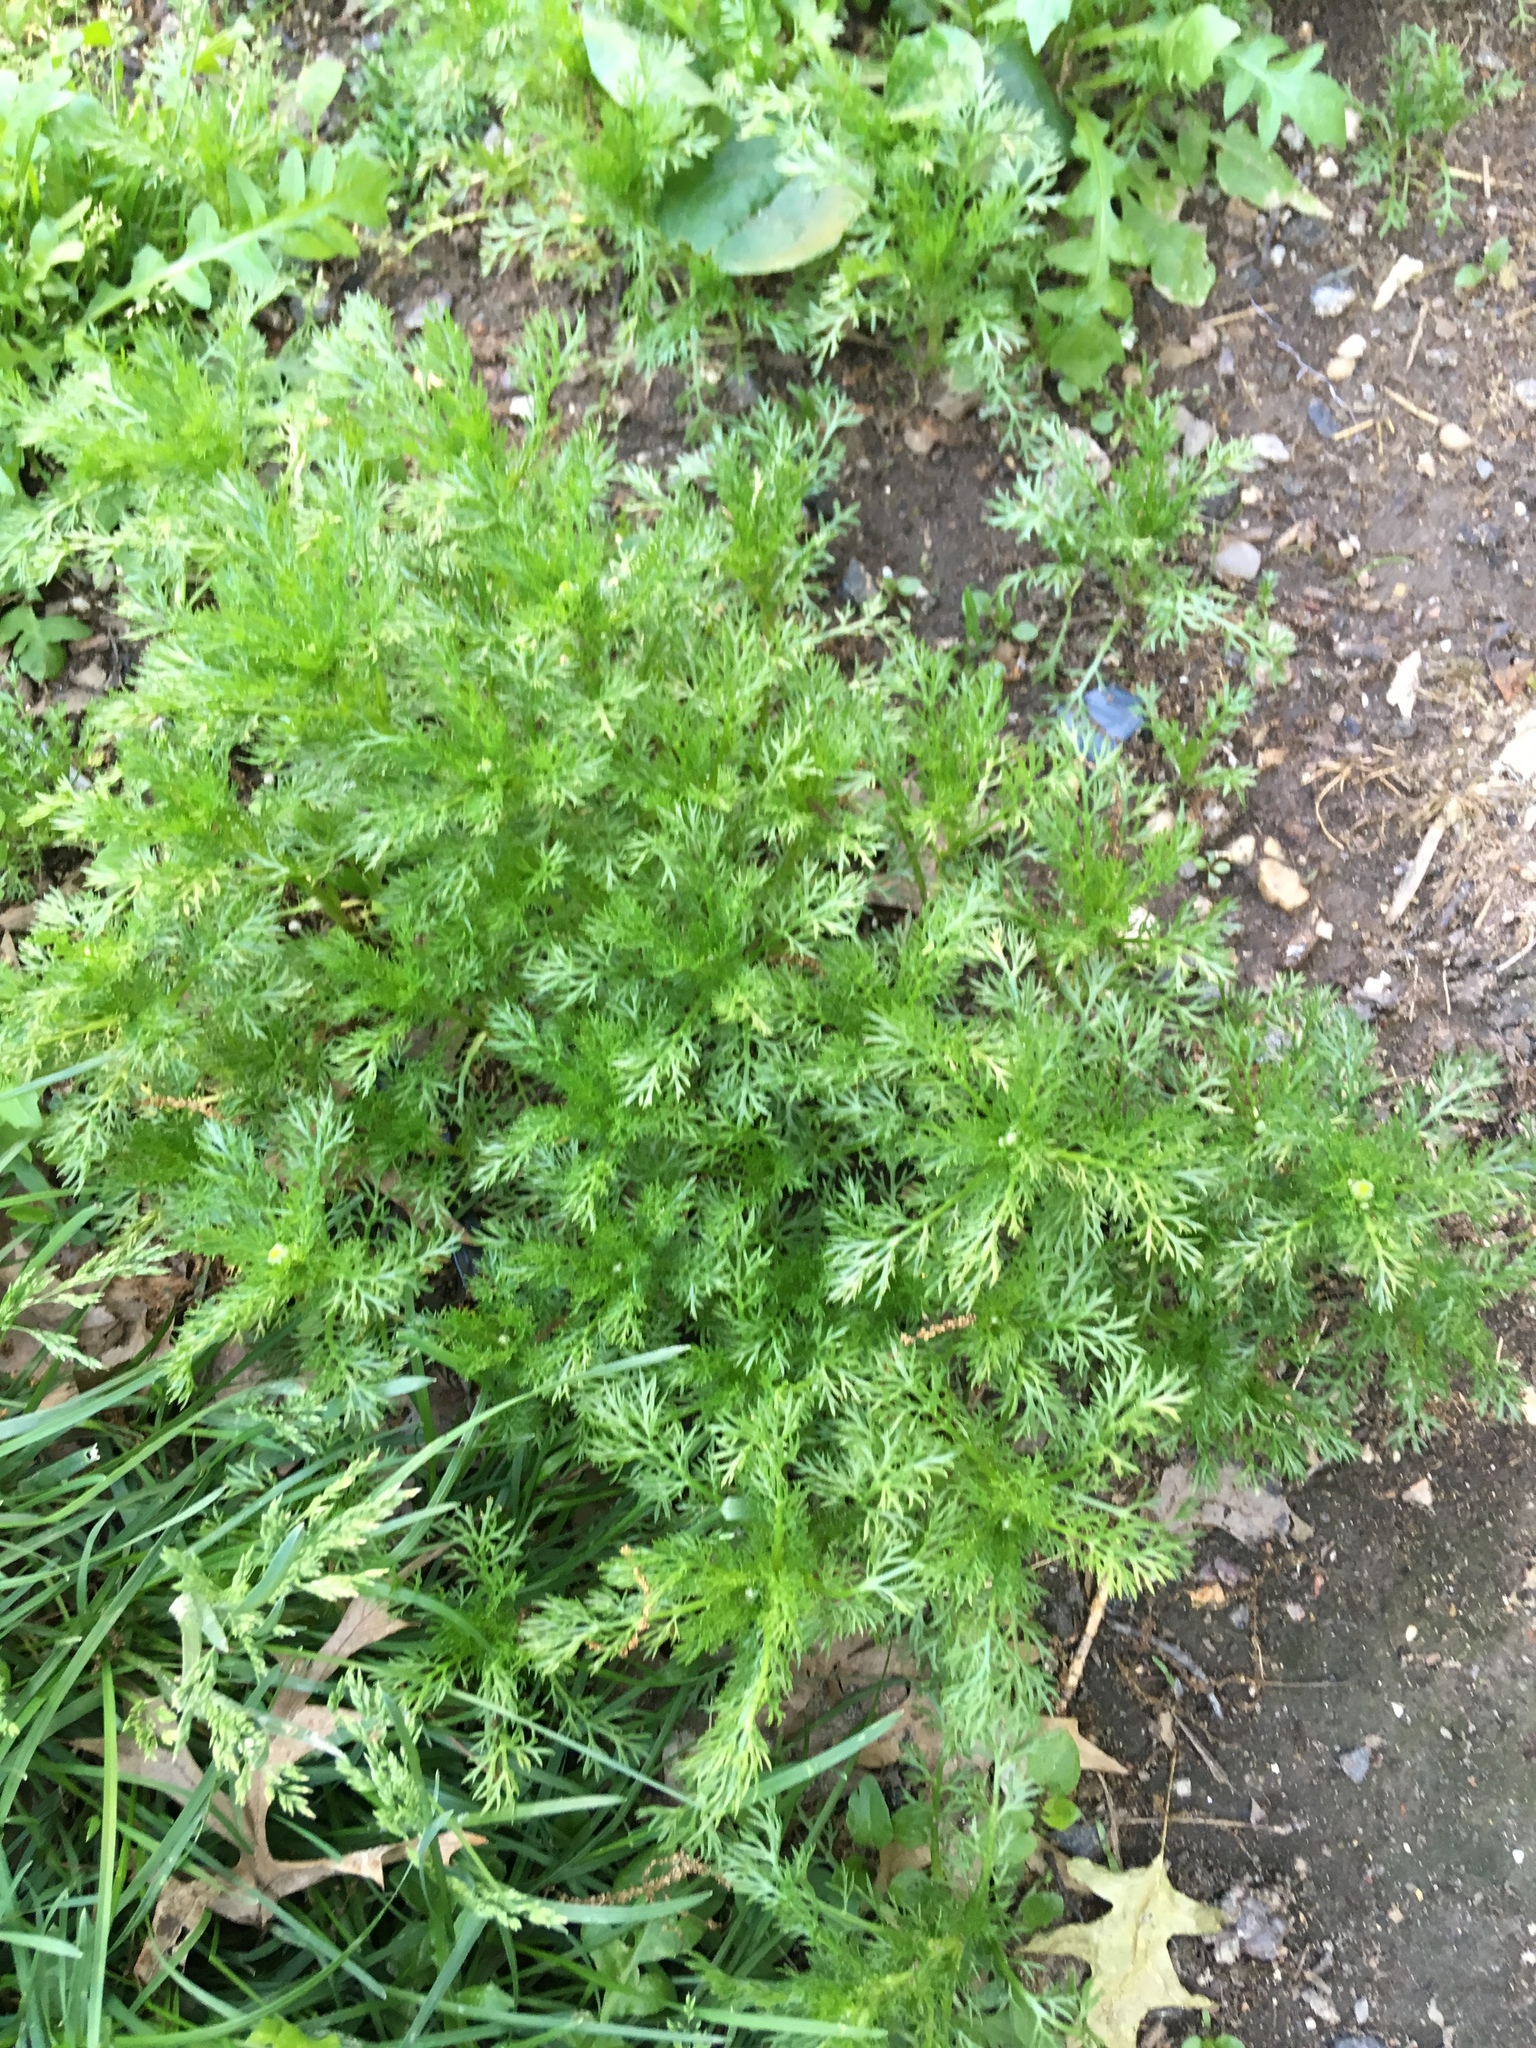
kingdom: Plantae
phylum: Tracheophyta
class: Magnoliopsida
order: Asterales
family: Asteraceae
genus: Matricaria
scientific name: Matricaria discoidea
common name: Disc mayweed
